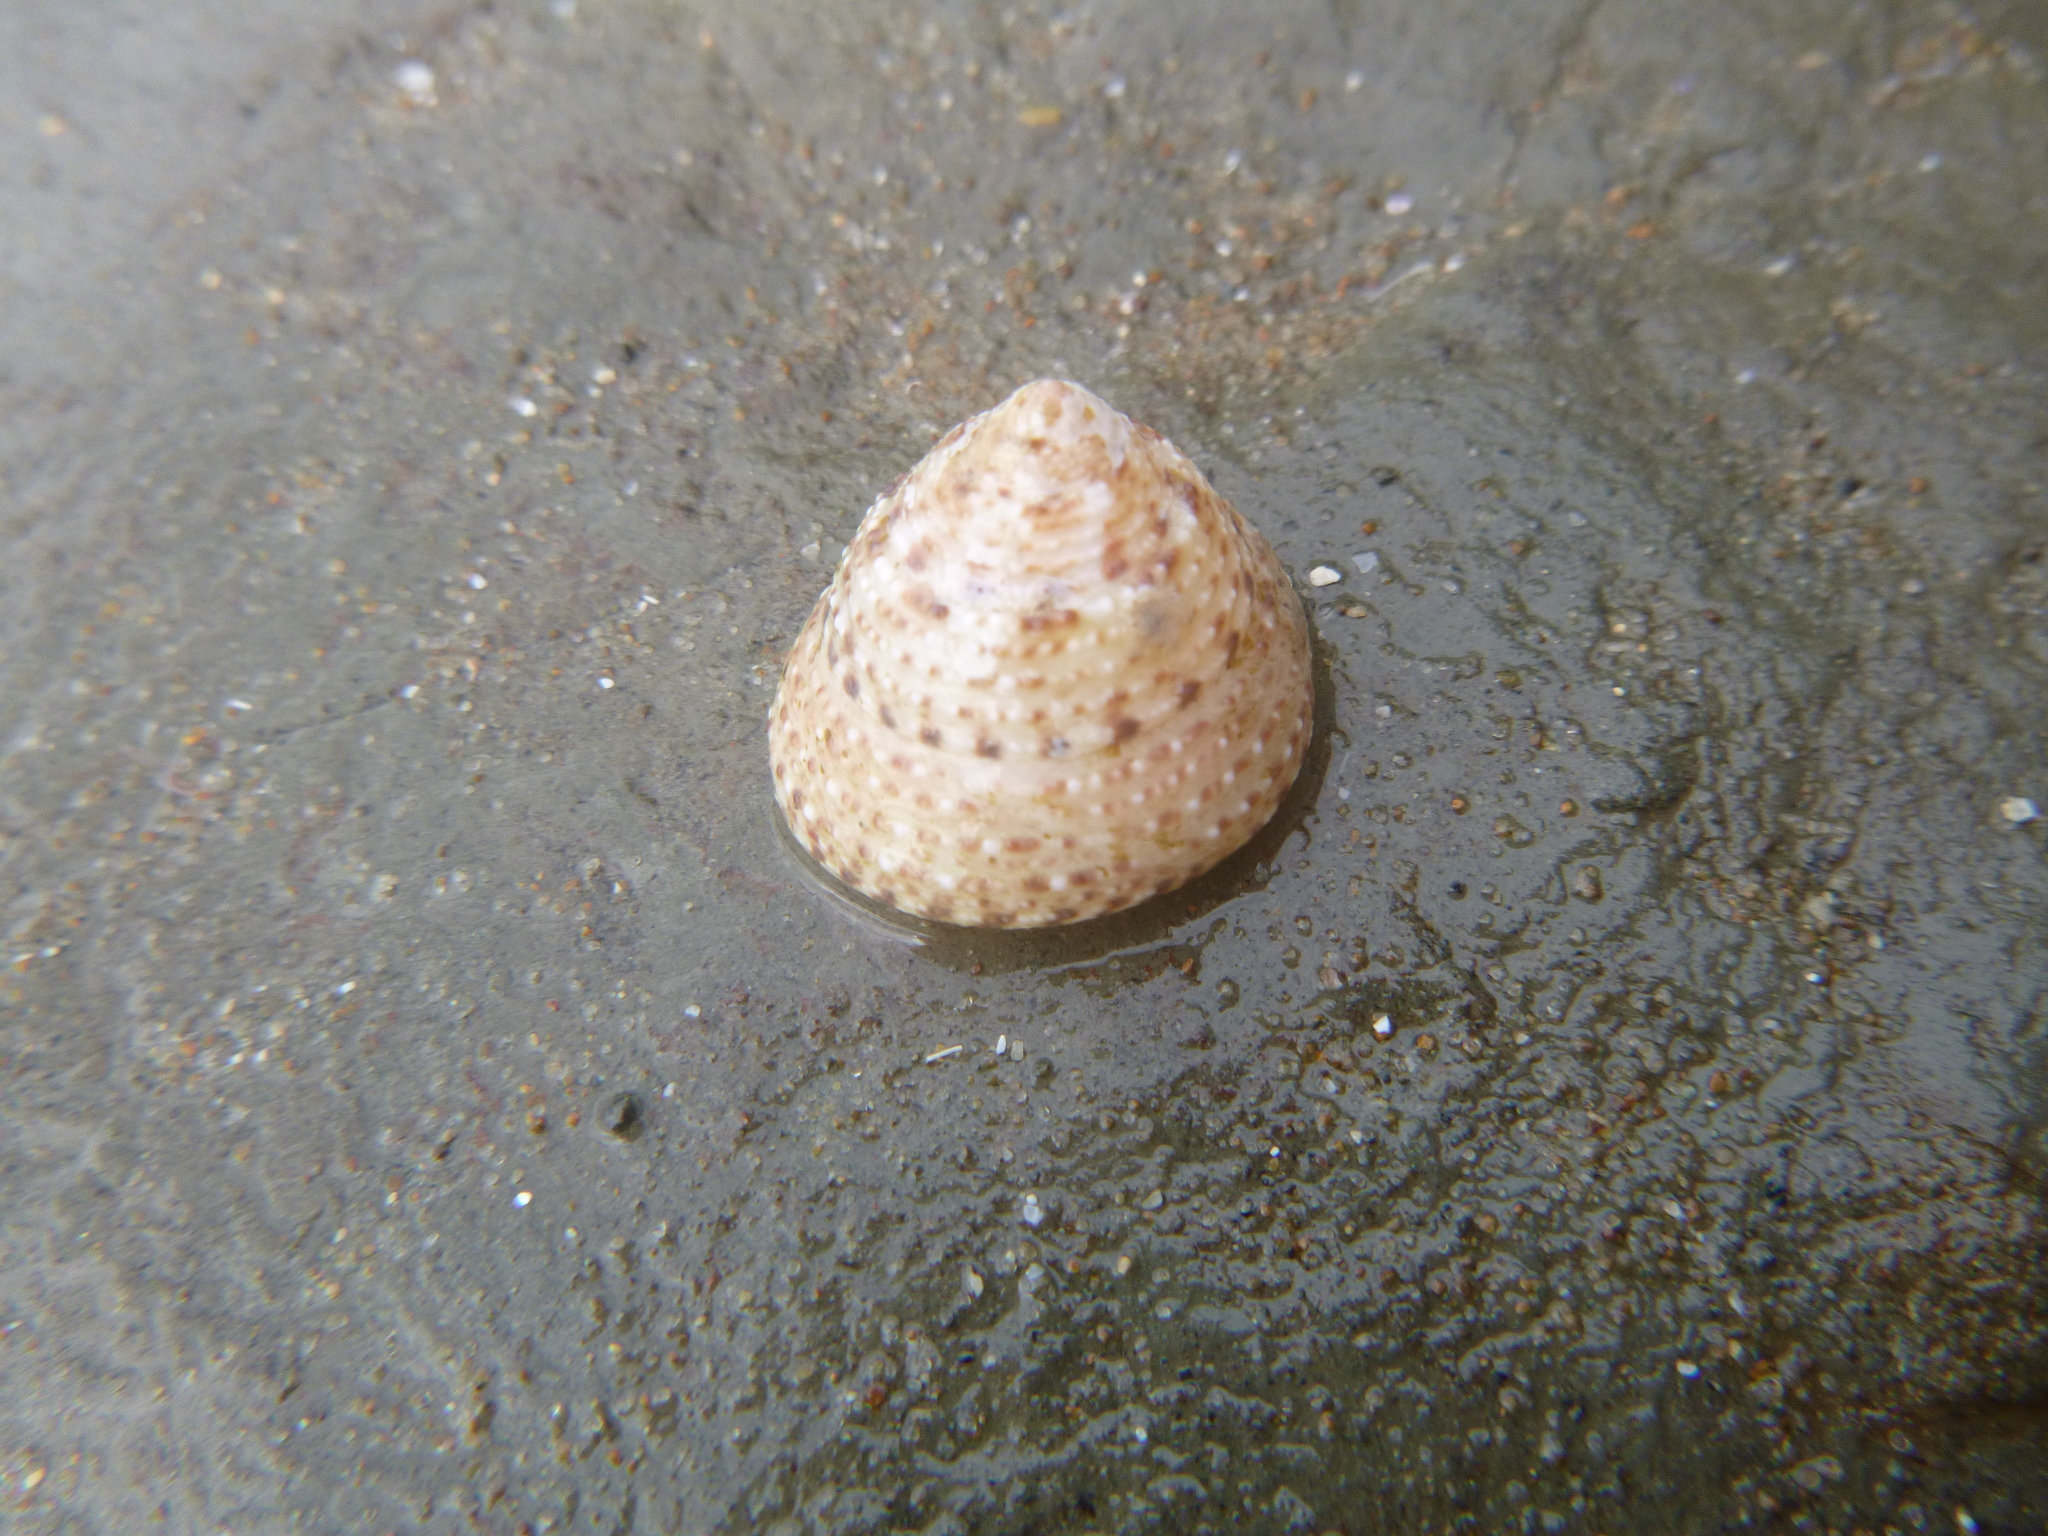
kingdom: Animalia
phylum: Mollusca
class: Gastropoda
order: Trochida
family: Trochidae
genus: Coelotrochus
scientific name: Coelotrochus tiaratus
